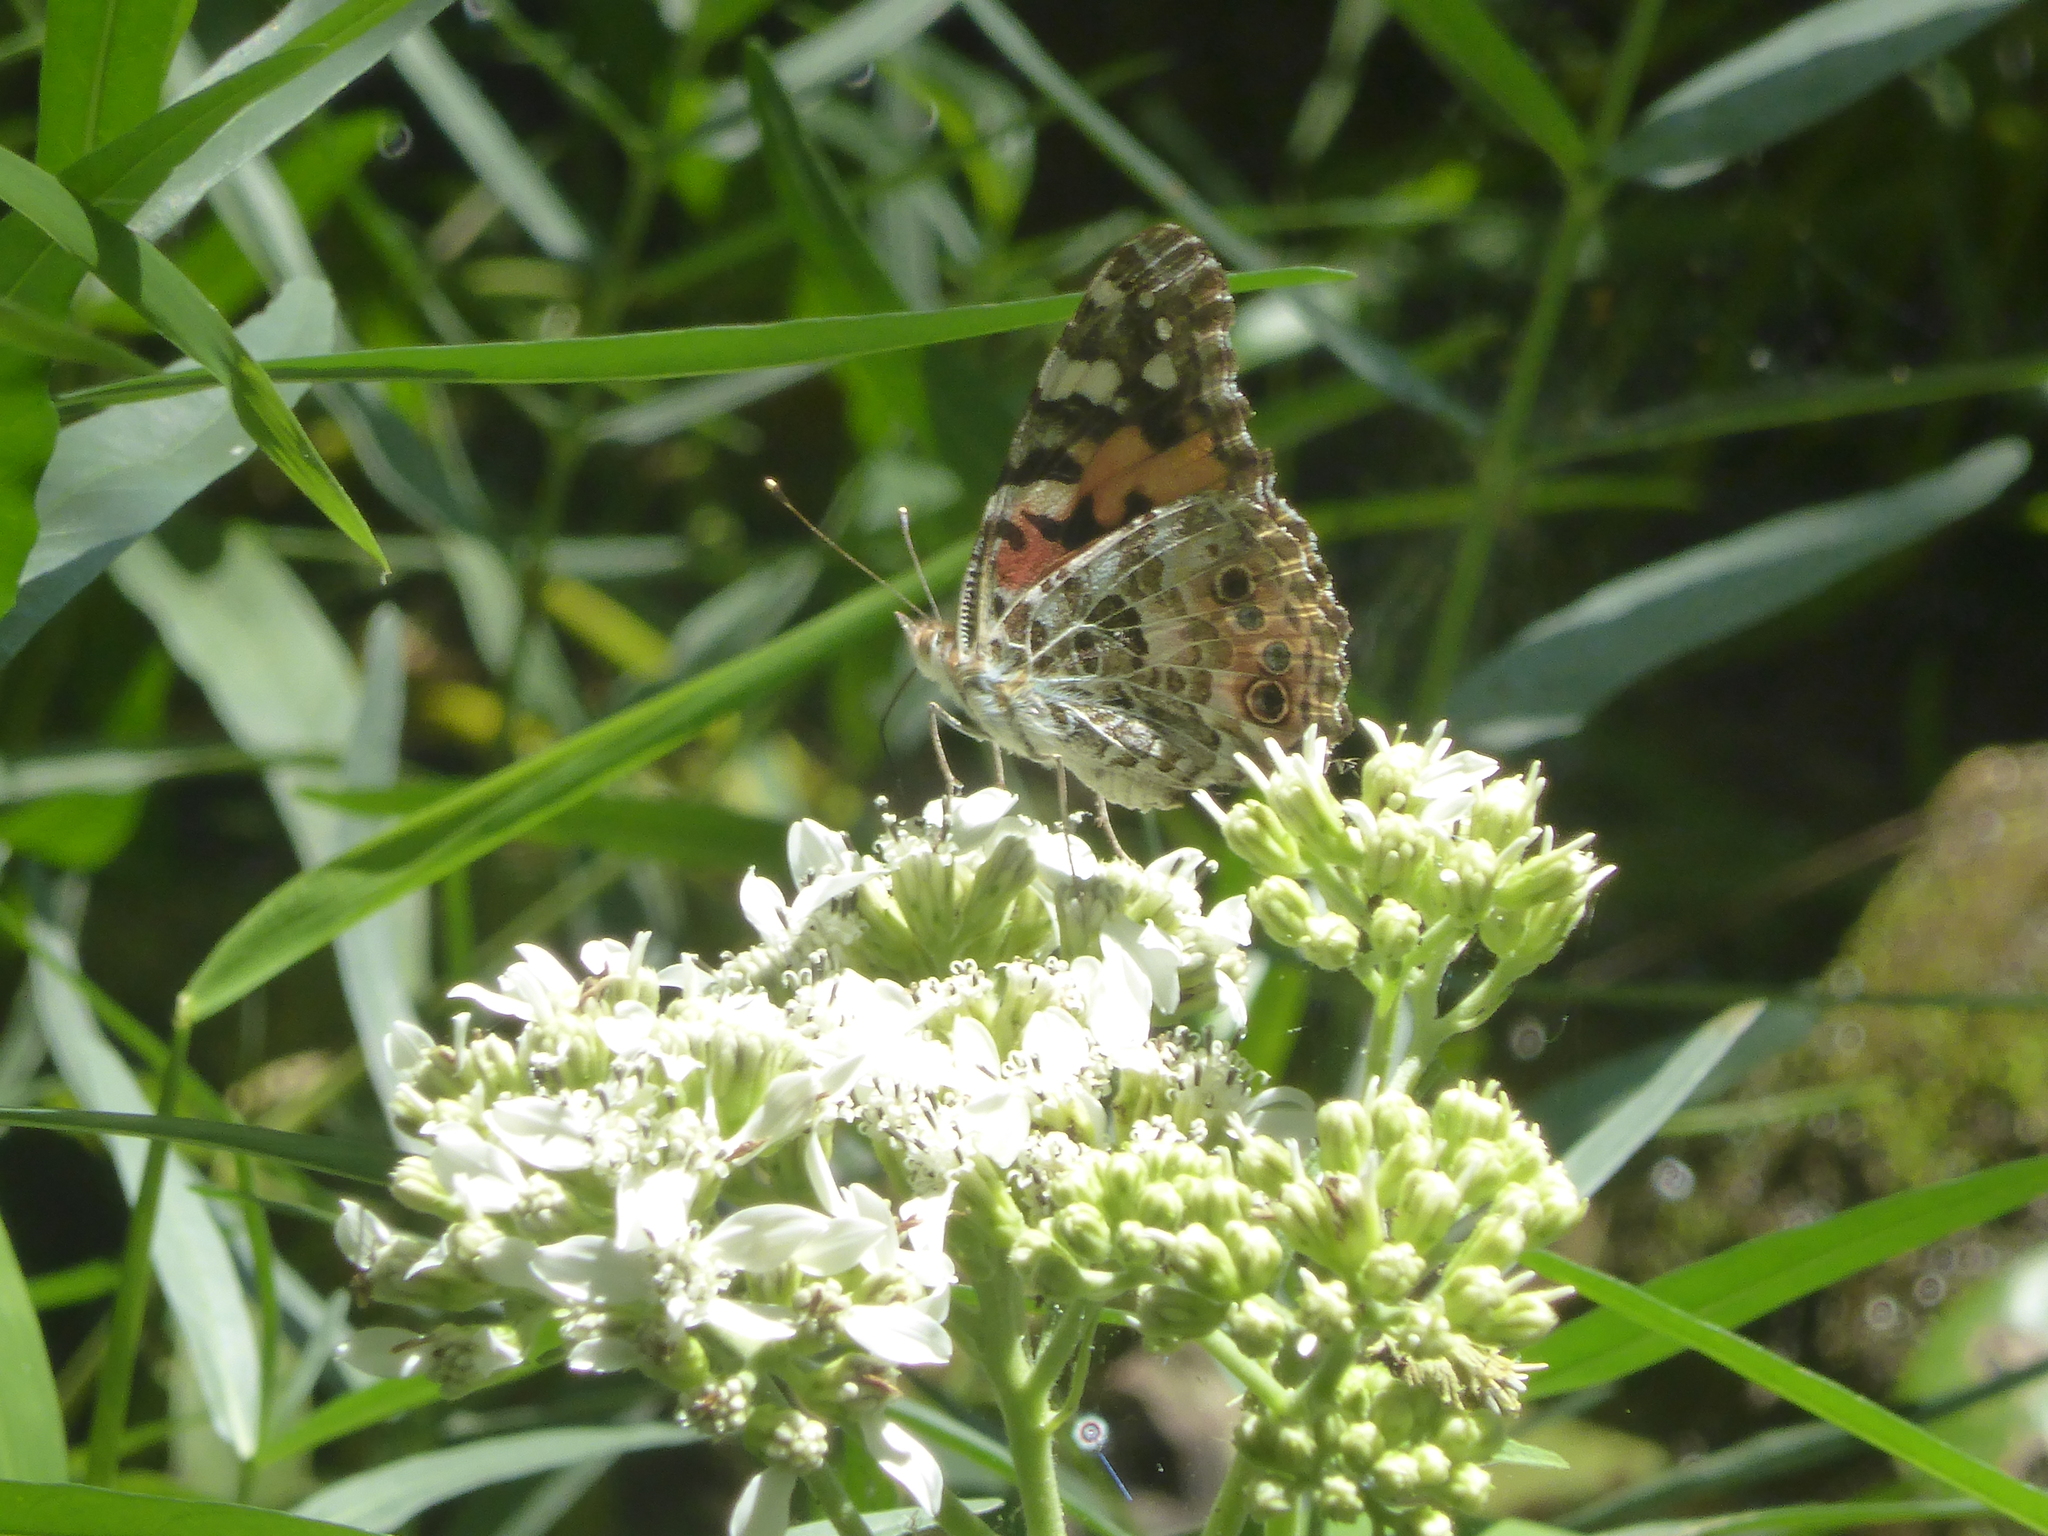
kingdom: Animalia
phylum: Arthropoda
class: Insecta
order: Lepidoptera
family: Nymphalidae
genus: Vanessa
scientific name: Vanessa cardui
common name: Painted lady
